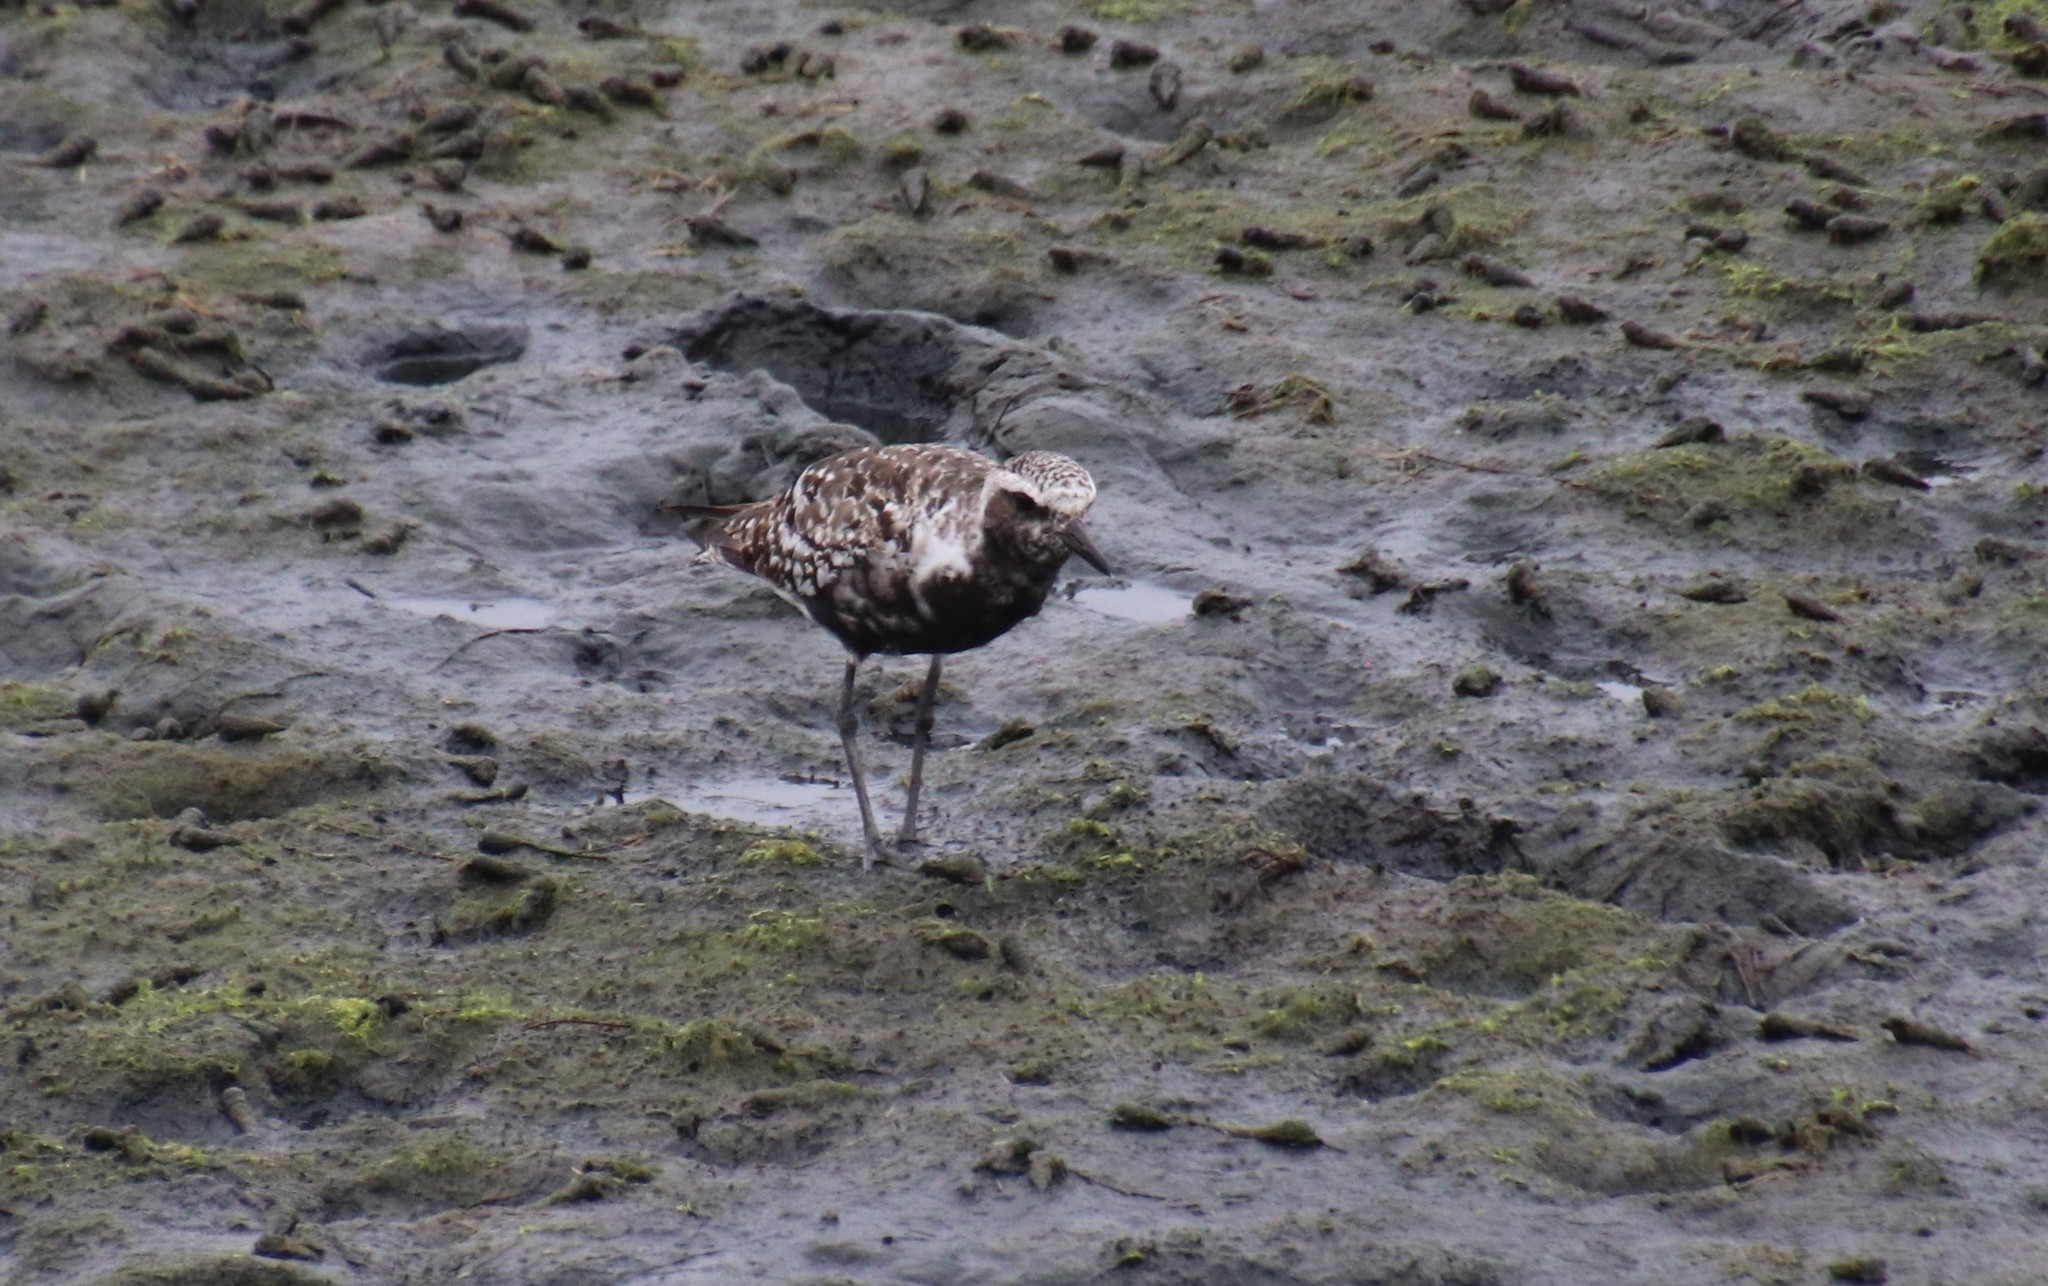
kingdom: Animalia
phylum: Chordata
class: Aves
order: Charadriiformes
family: Charadriidae
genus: Pluvialis
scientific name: Pluvialis squatarola
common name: Grey plover
